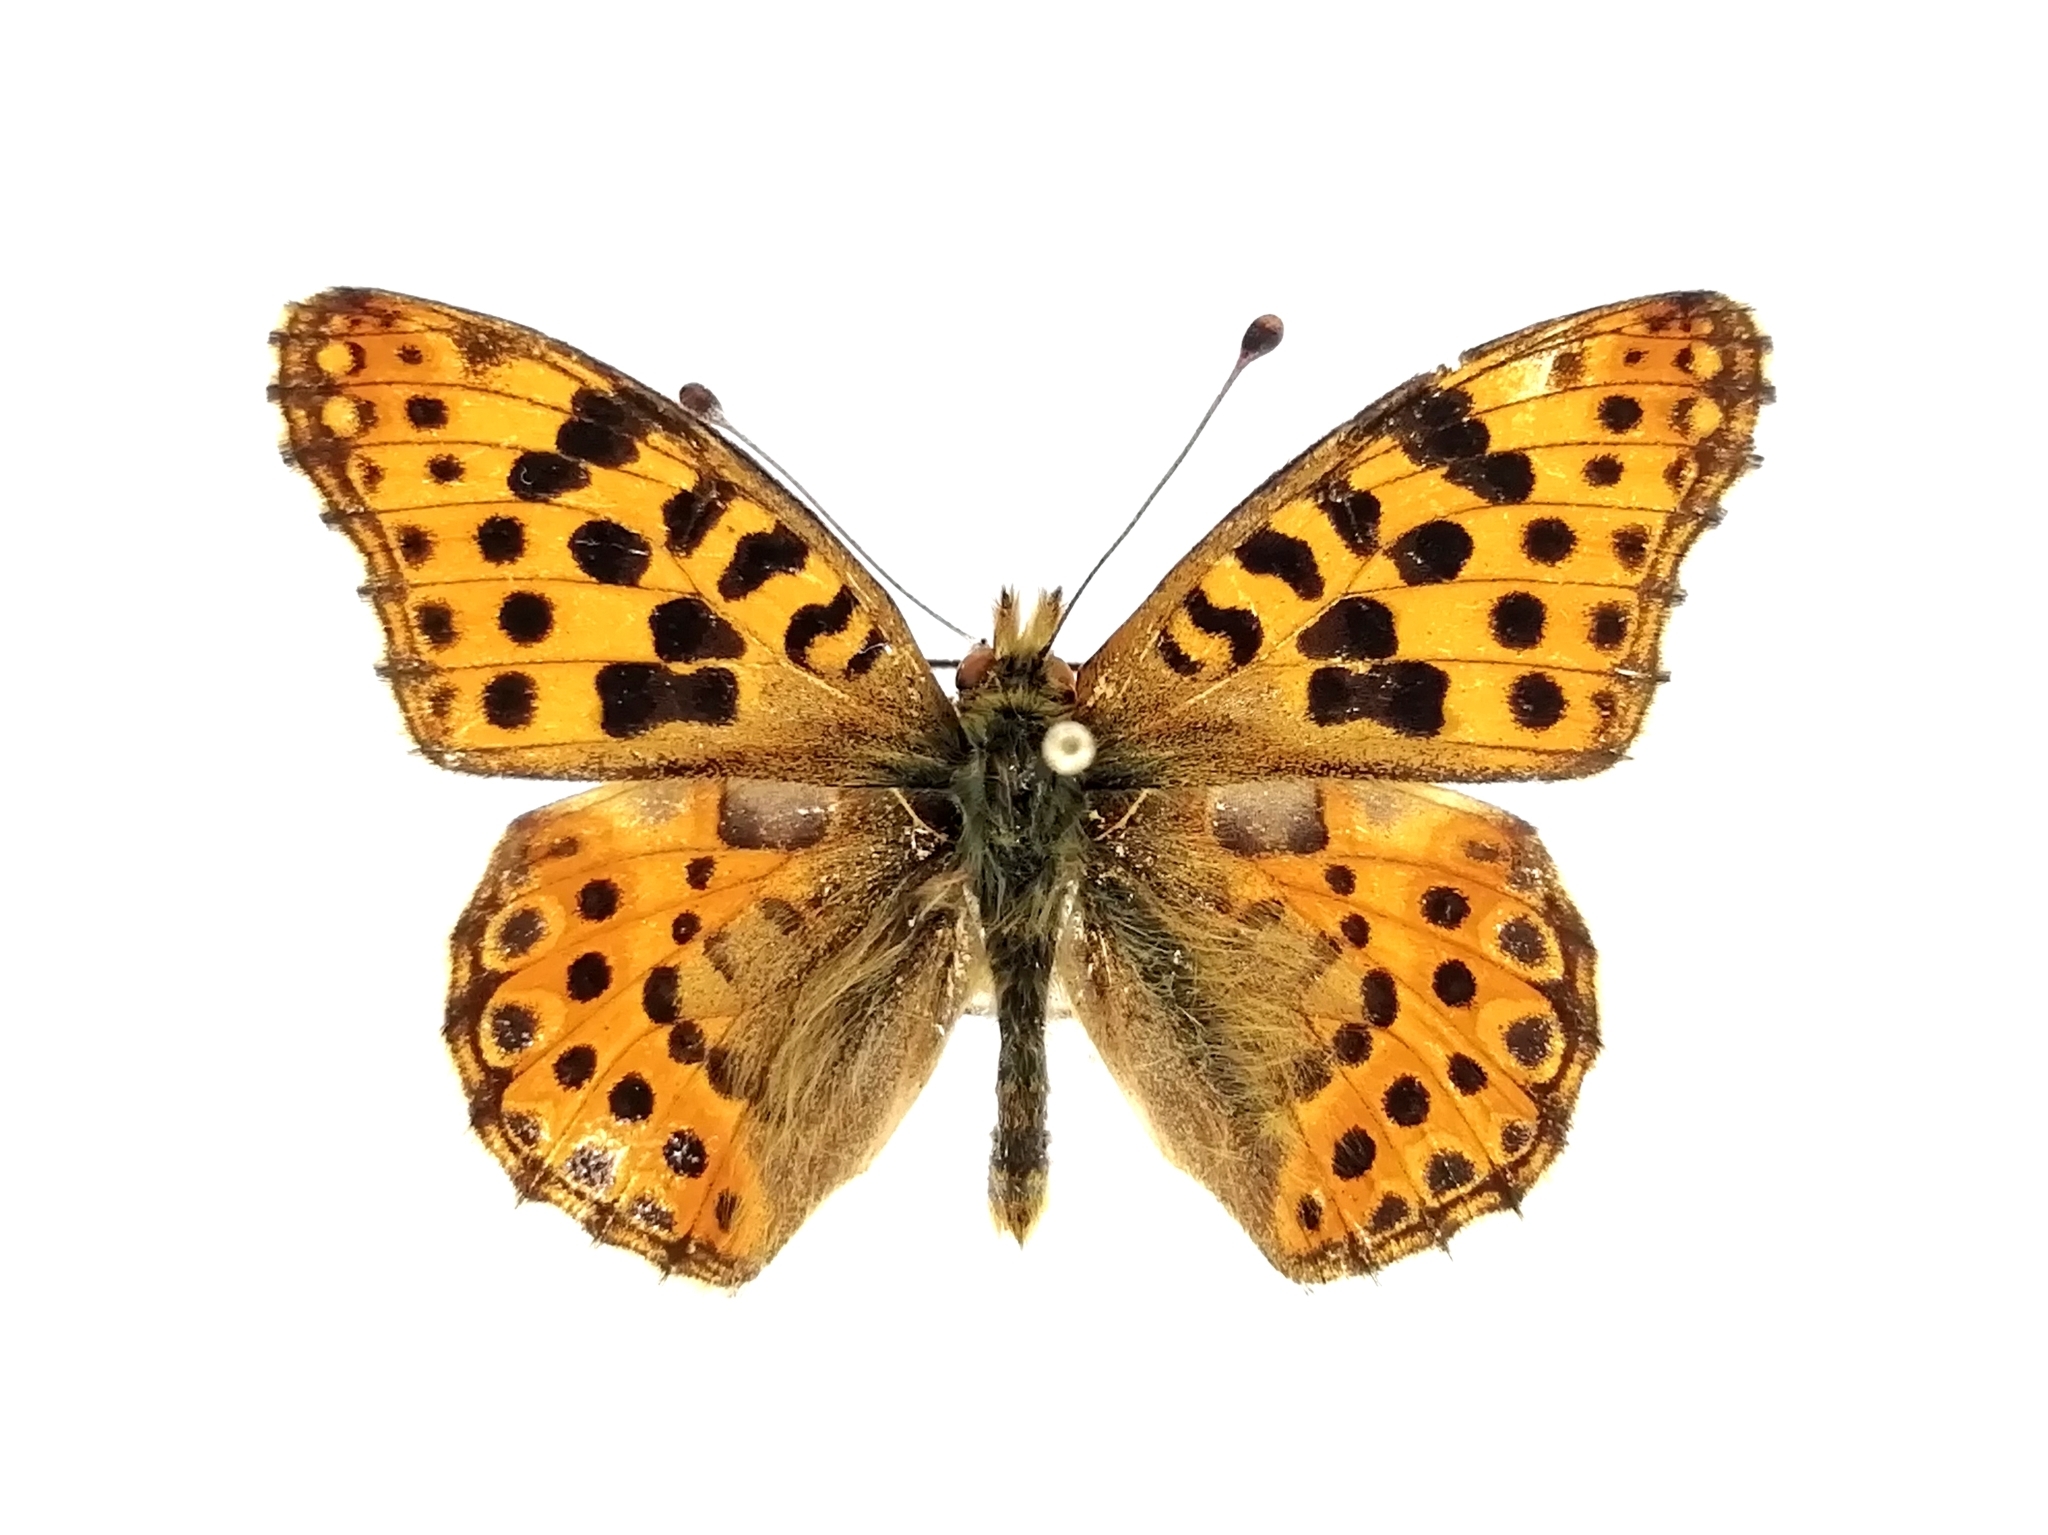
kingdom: Animalia
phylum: Arthropoda
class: Insecta
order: Lepidoptera
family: Nymphalidae
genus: Issoria
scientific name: Issoria lathonia
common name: Queen of spain fritillary
